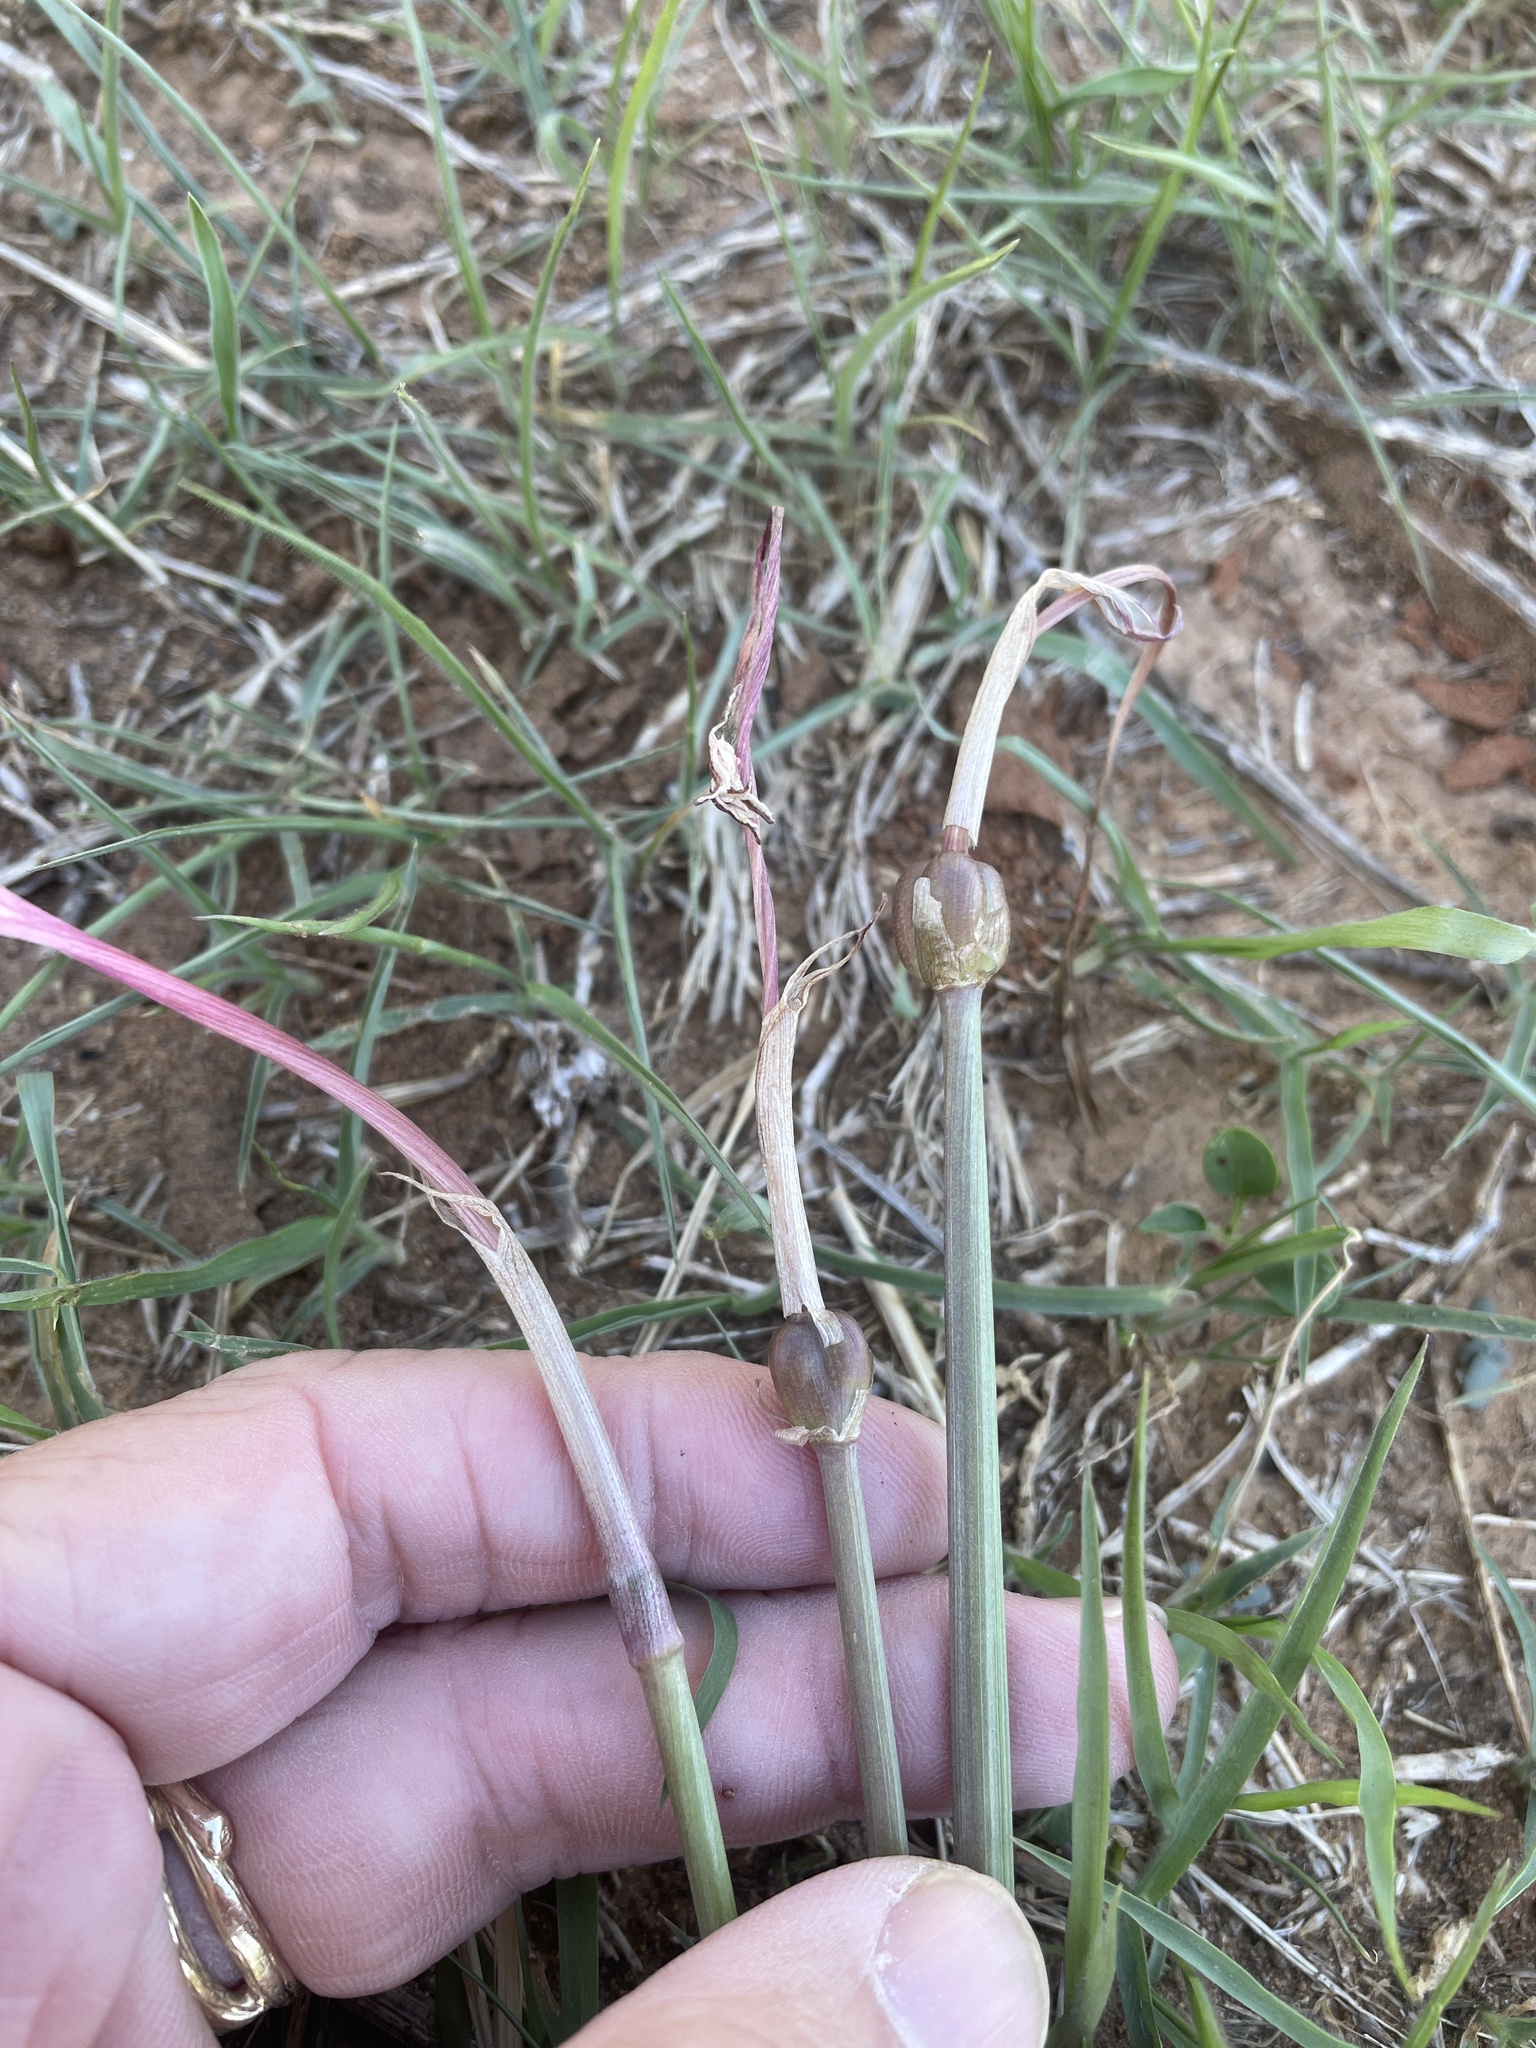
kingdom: Plantae
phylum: Tracheophyta
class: Liliopsida
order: Asparagales
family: Amaryllidaceae
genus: Zephyranthes
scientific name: Zephyranthes chlorosolen
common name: Evening rain-lily
